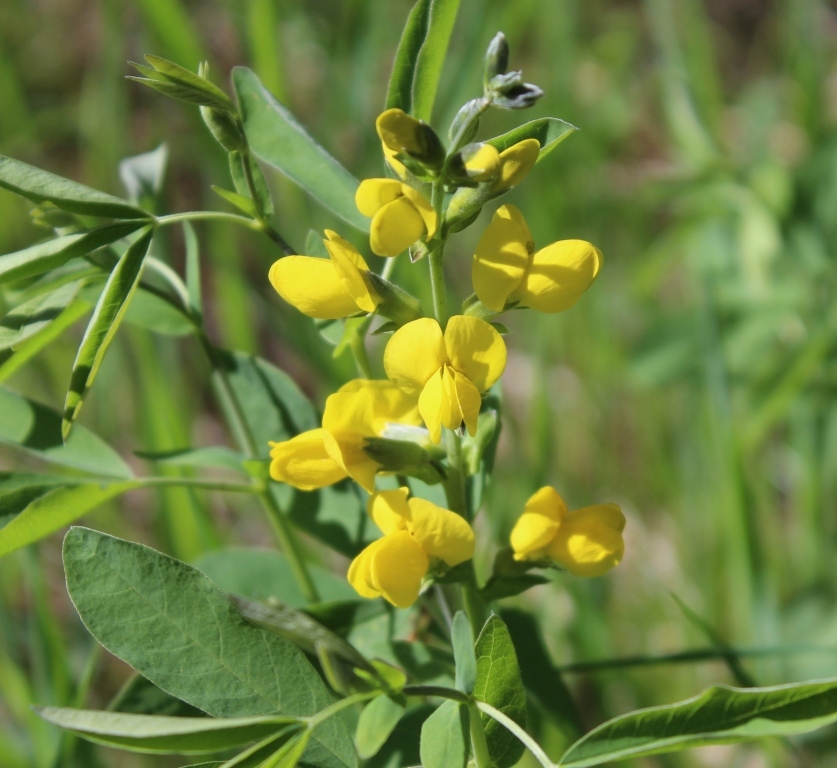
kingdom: Plantae
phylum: Tracheophyta
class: Magnoliopsida
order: Fabales
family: Fabaceae
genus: Thermopsis
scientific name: Thermopsis montana
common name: False lupin
